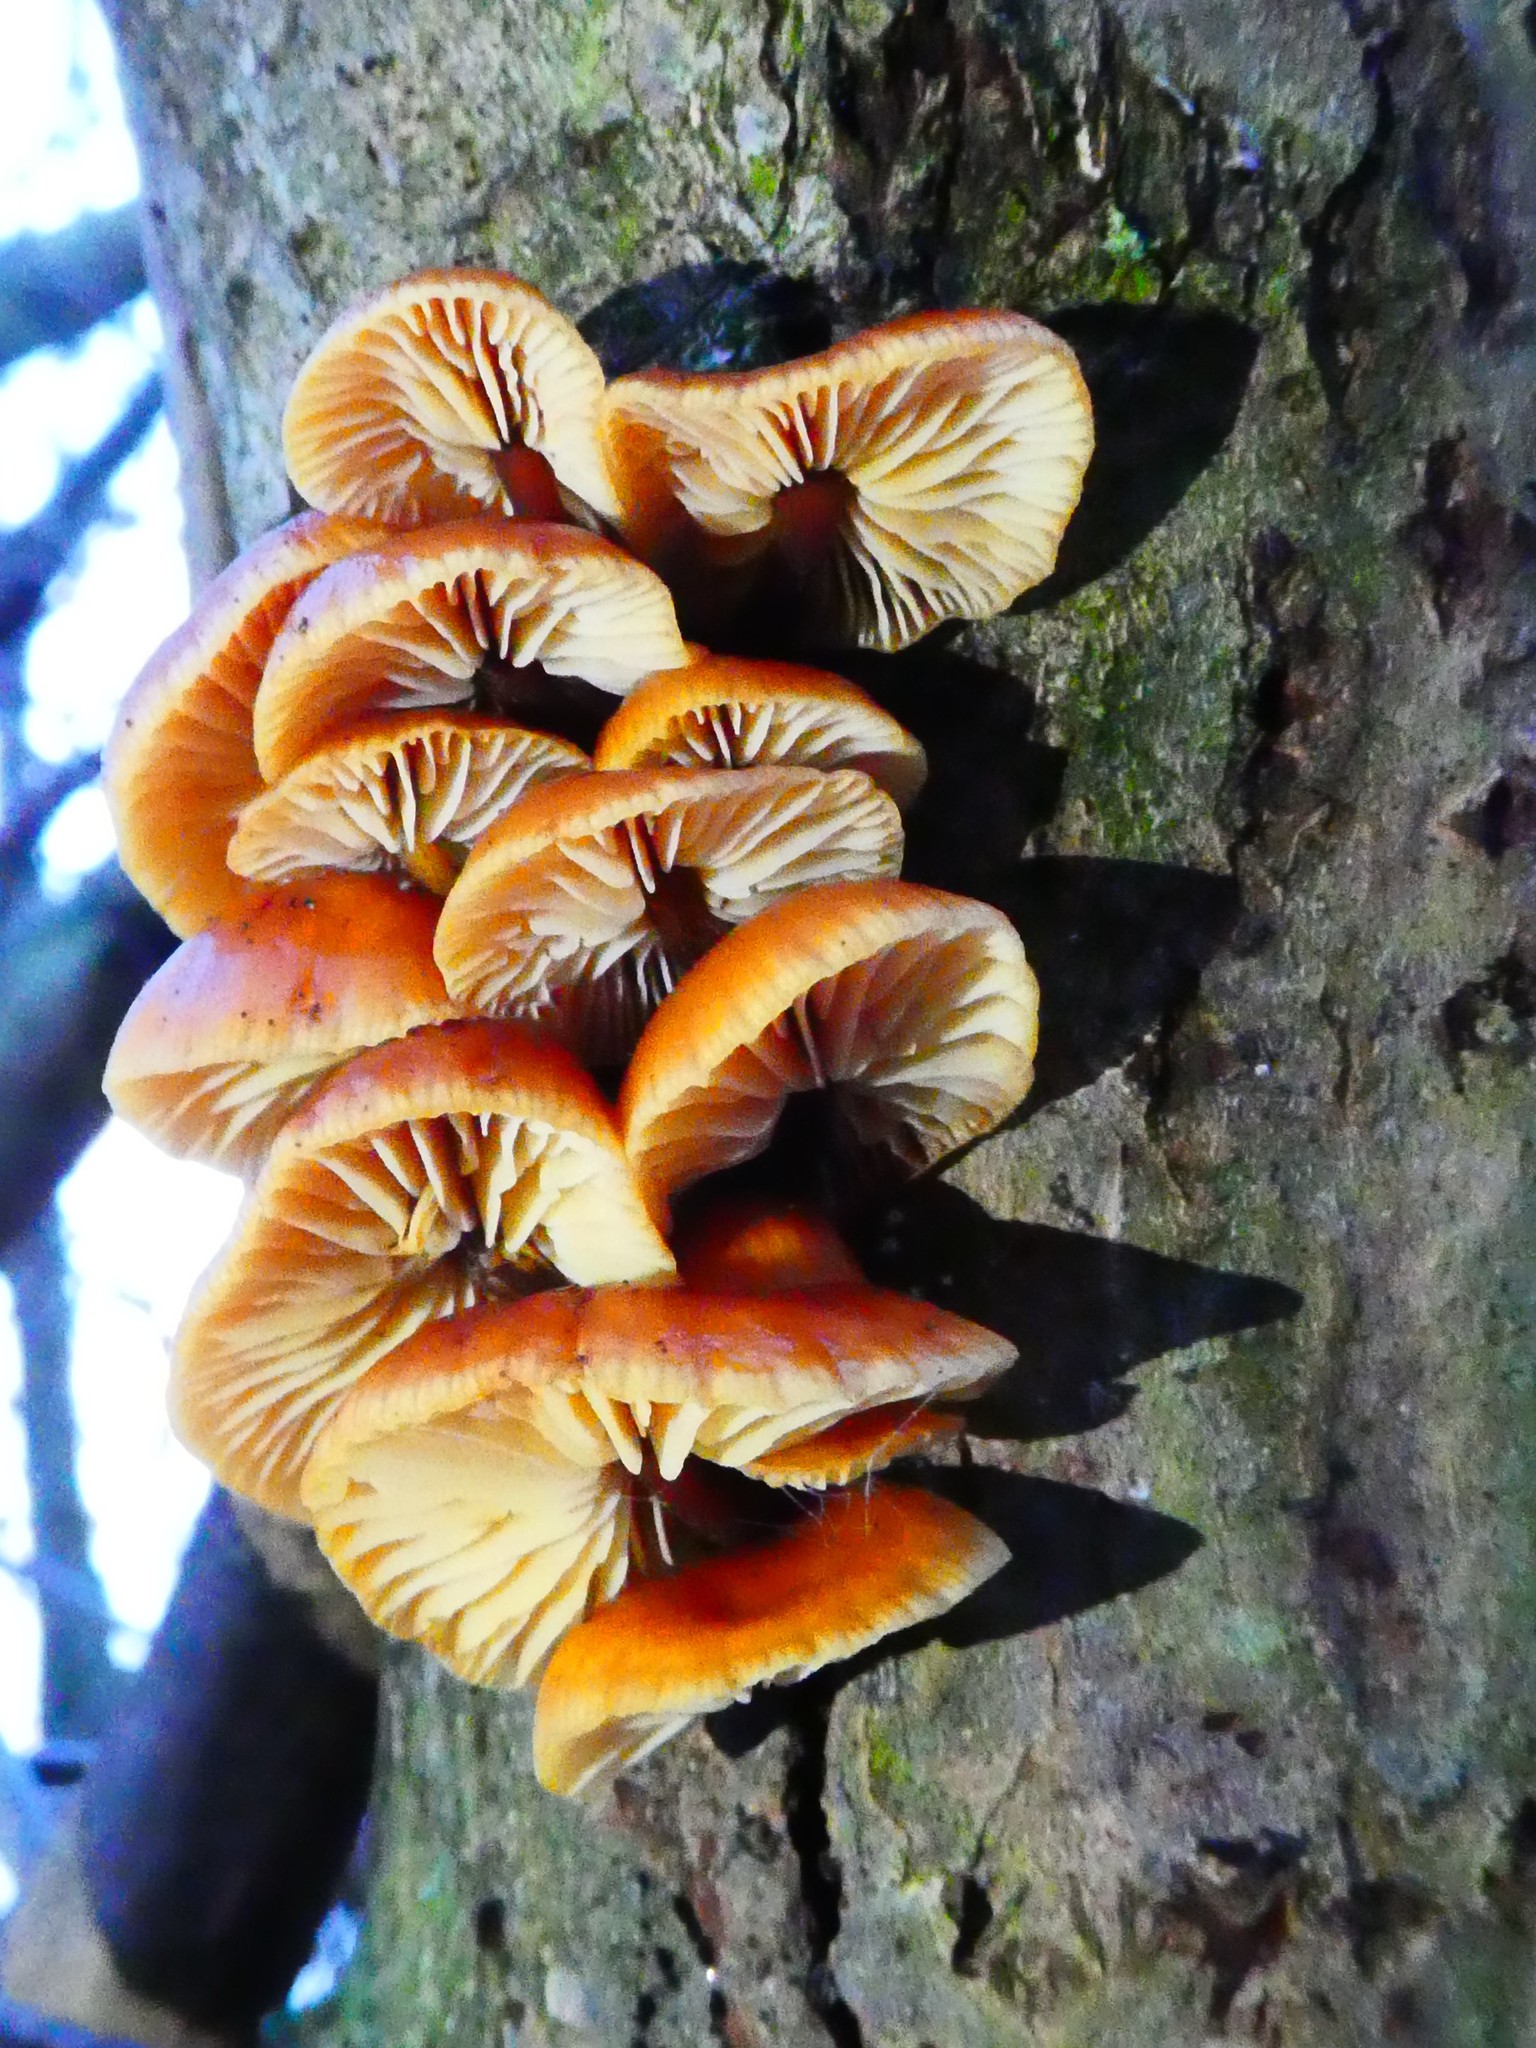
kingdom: Fungi
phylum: Basidiomycota
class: Agaricomycetes
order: Agaricales
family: Physalacriaceae
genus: Flammulina
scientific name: Flammulina
